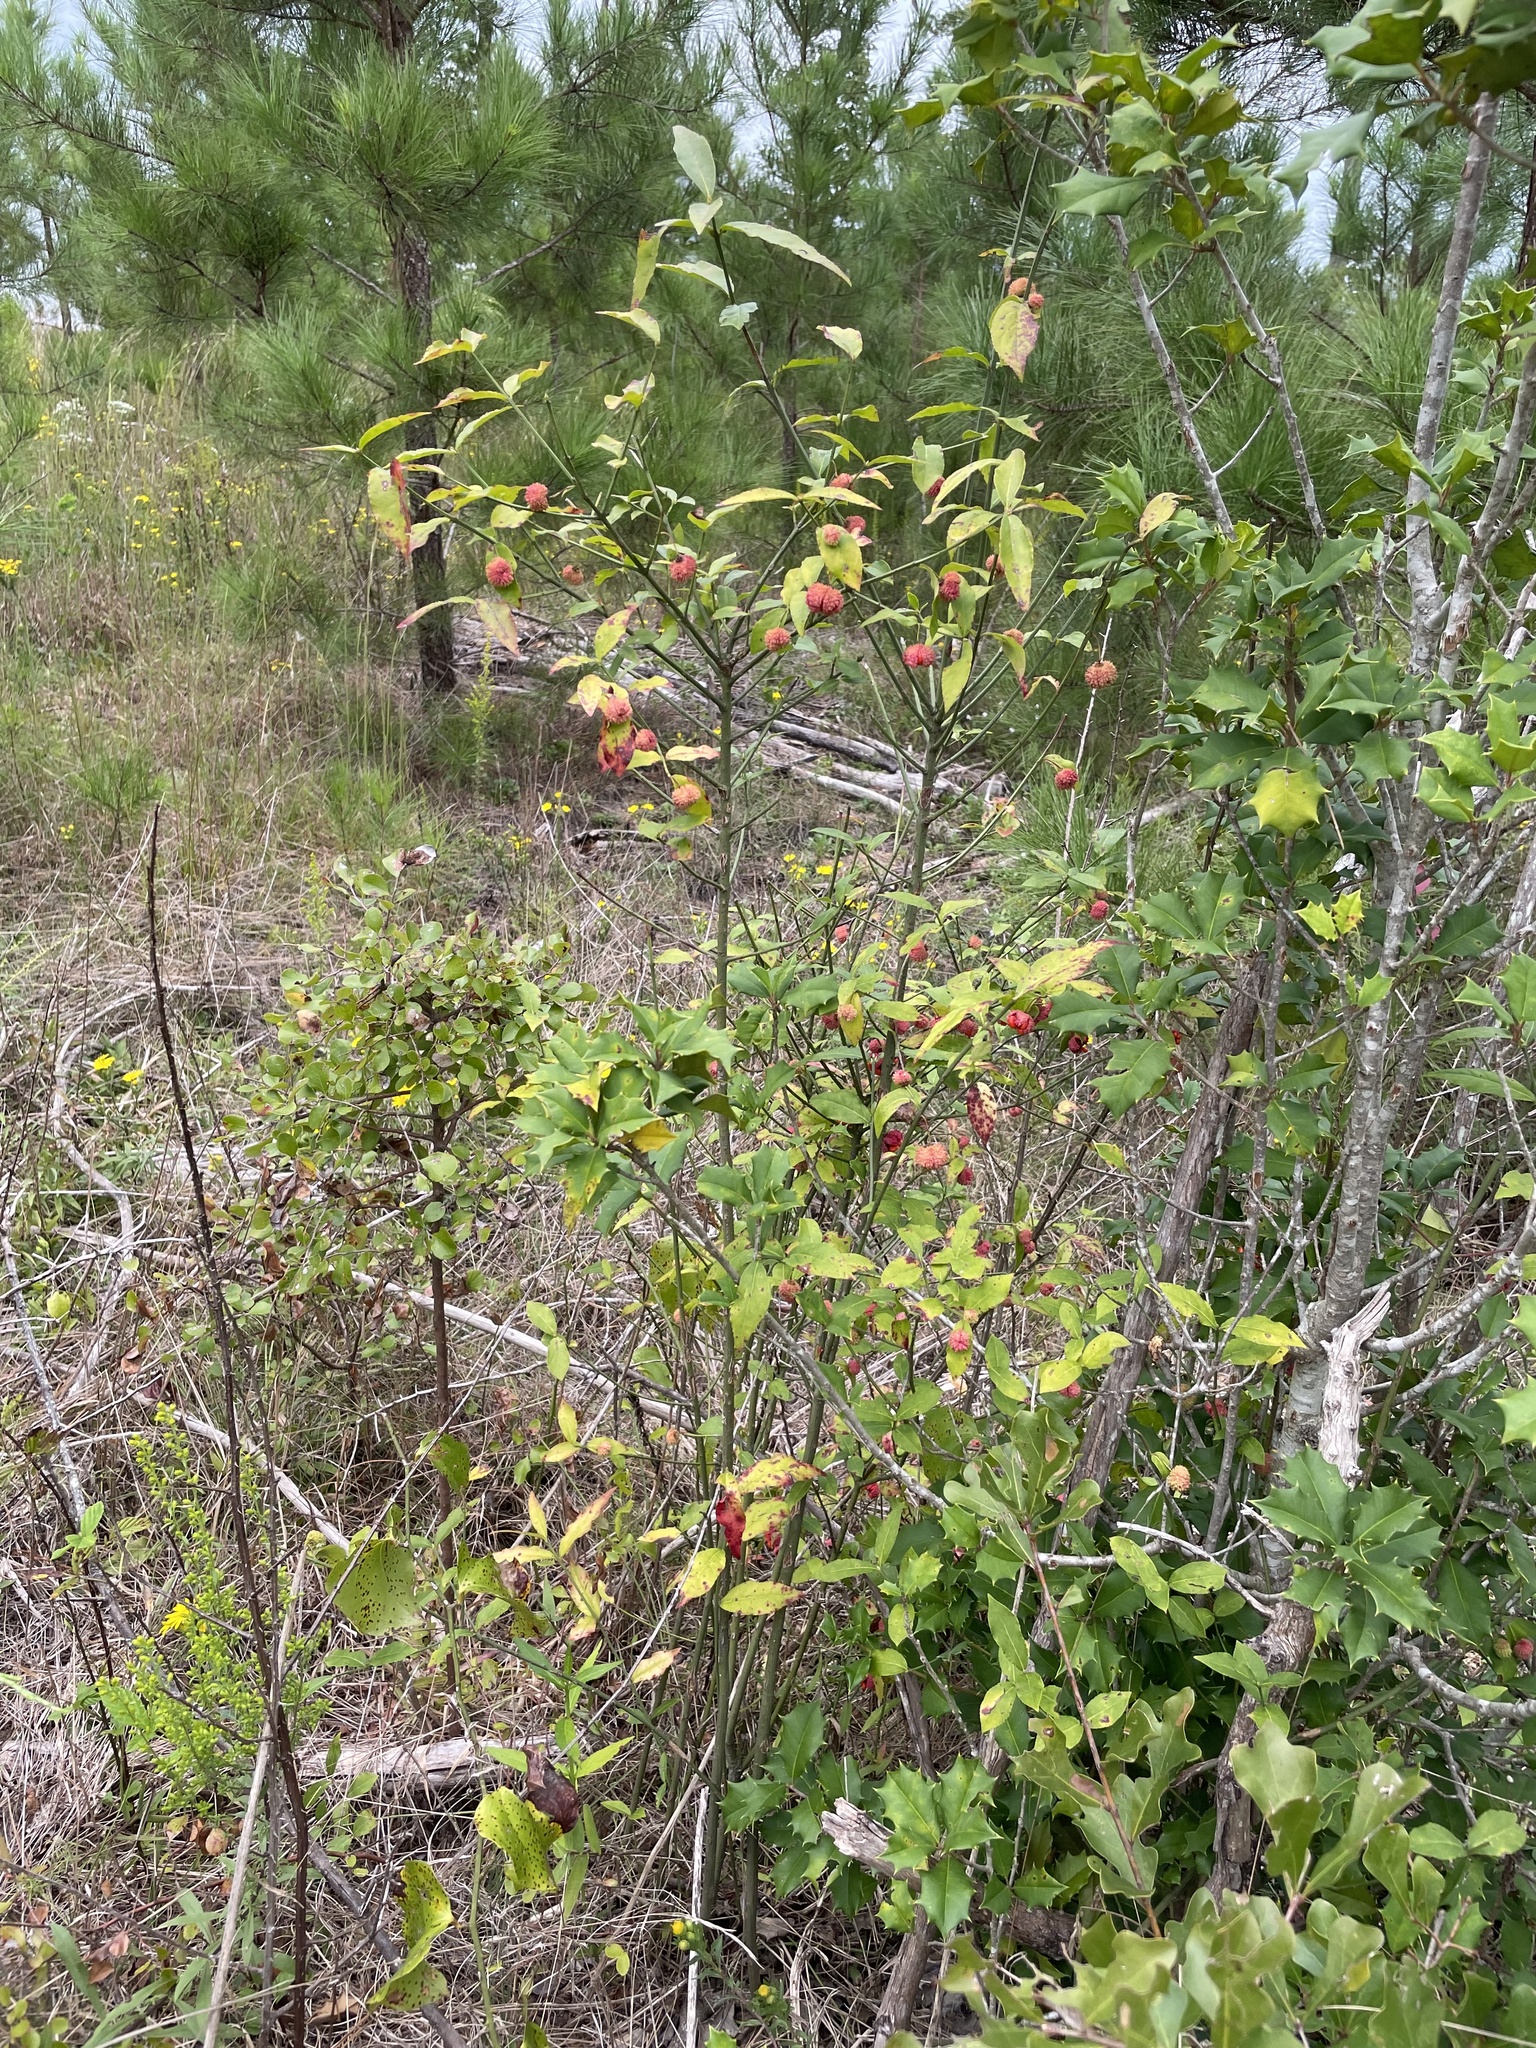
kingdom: Plantae
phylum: Tracheophyta
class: Magnoliopsida
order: Celastrales
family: Celastraceae
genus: Euonymus
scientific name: Euonymus americanus
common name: Bursting-heart
